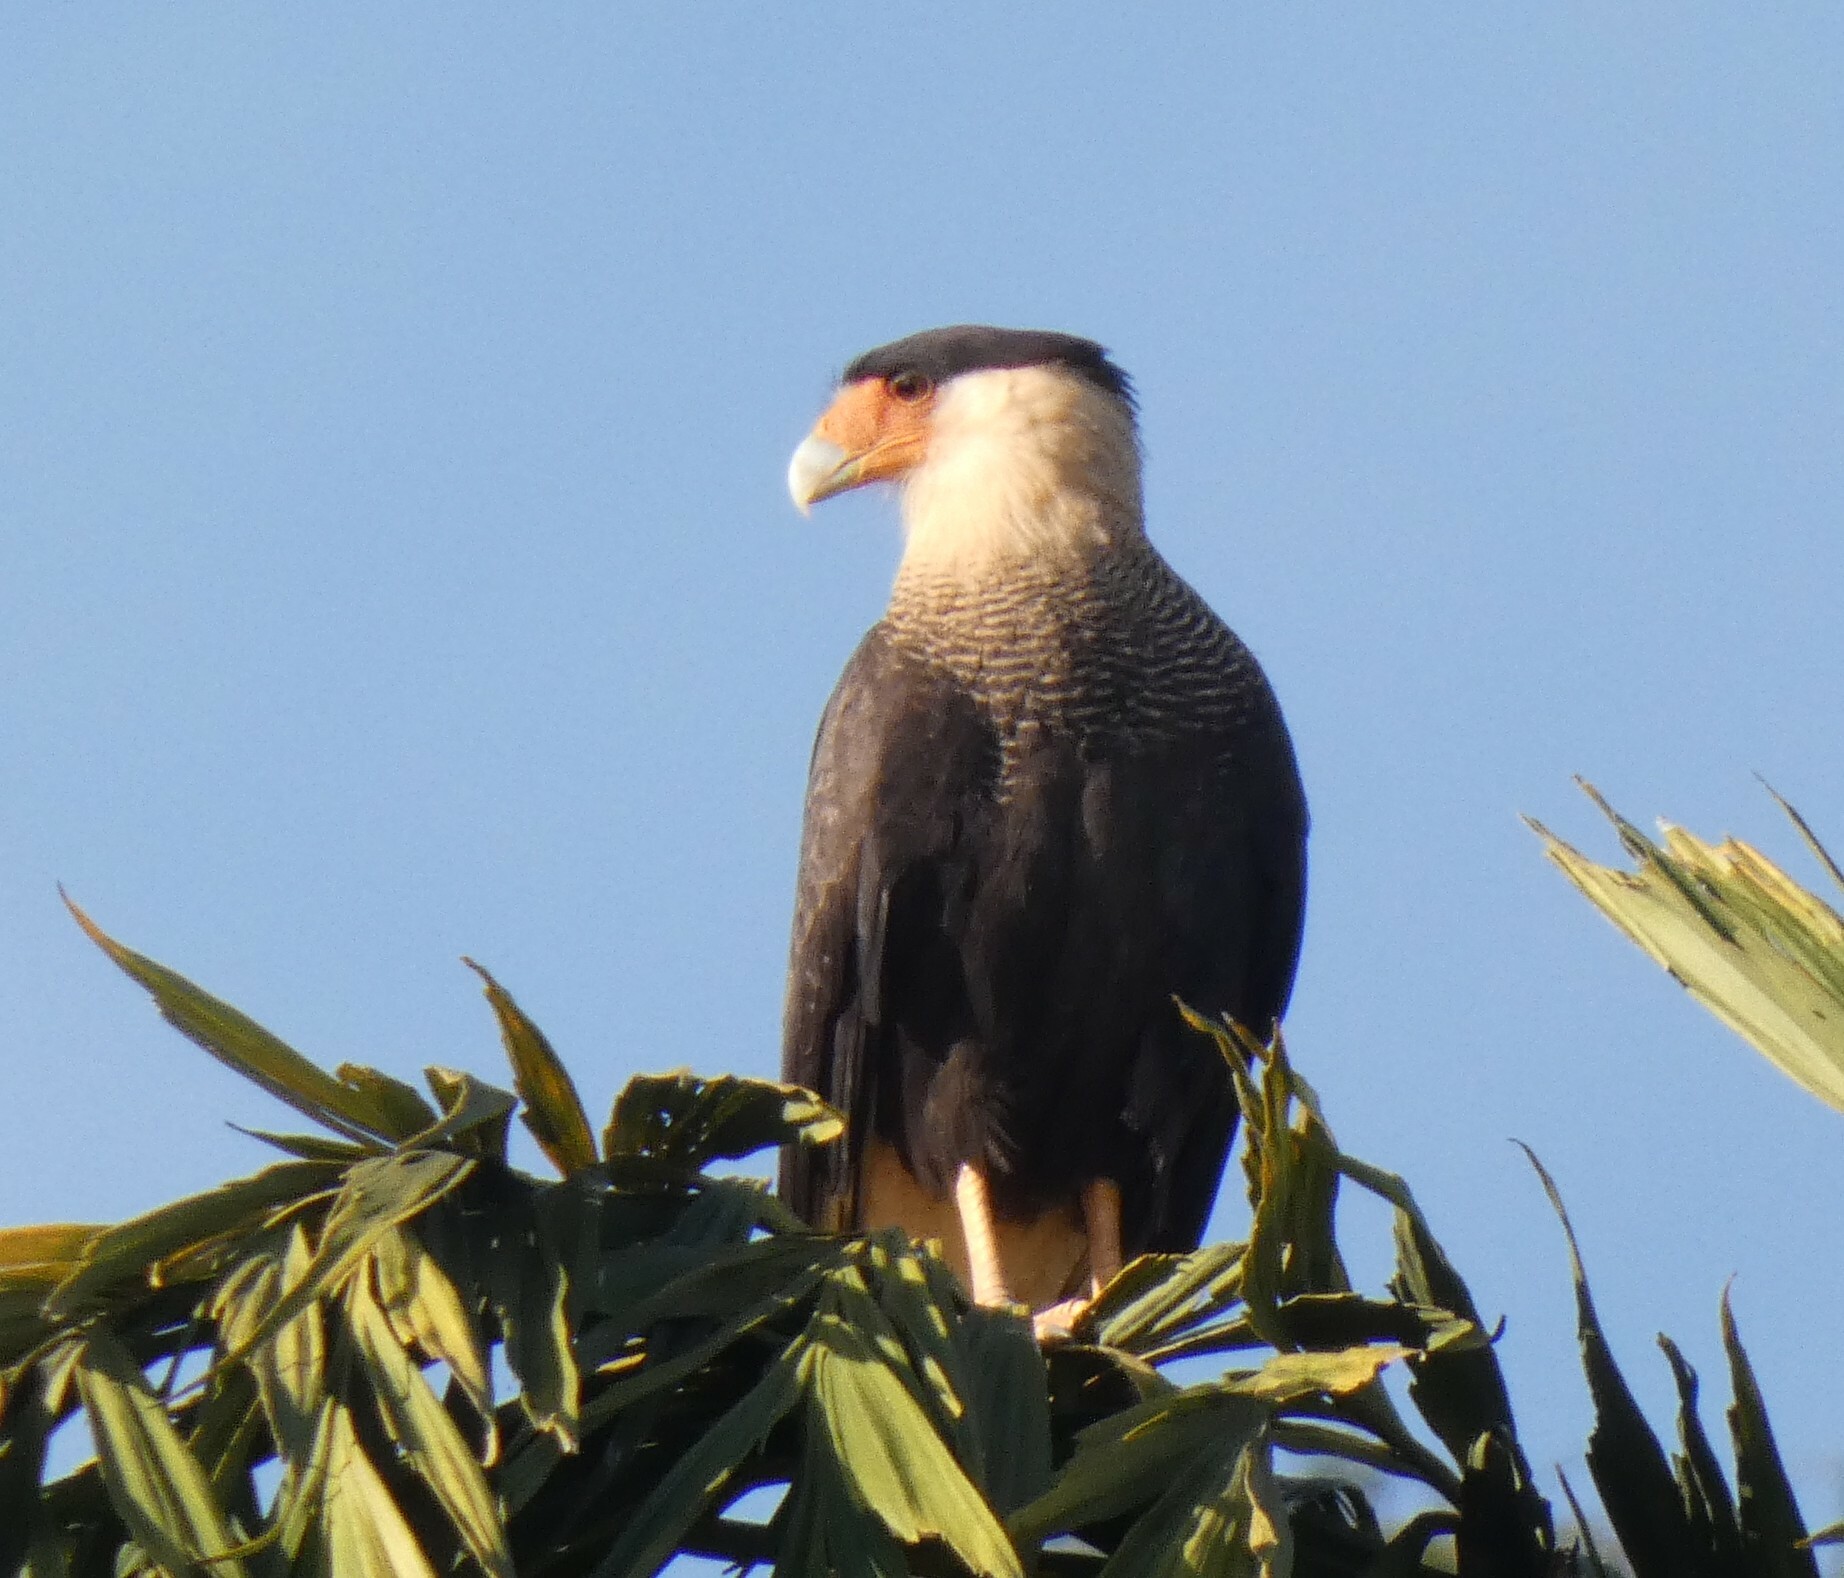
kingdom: Animalia
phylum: Chordata
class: Aves
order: Falconiformes
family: Falconidae
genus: Caracara
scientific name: Caracara plancus
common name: Southern caracara
